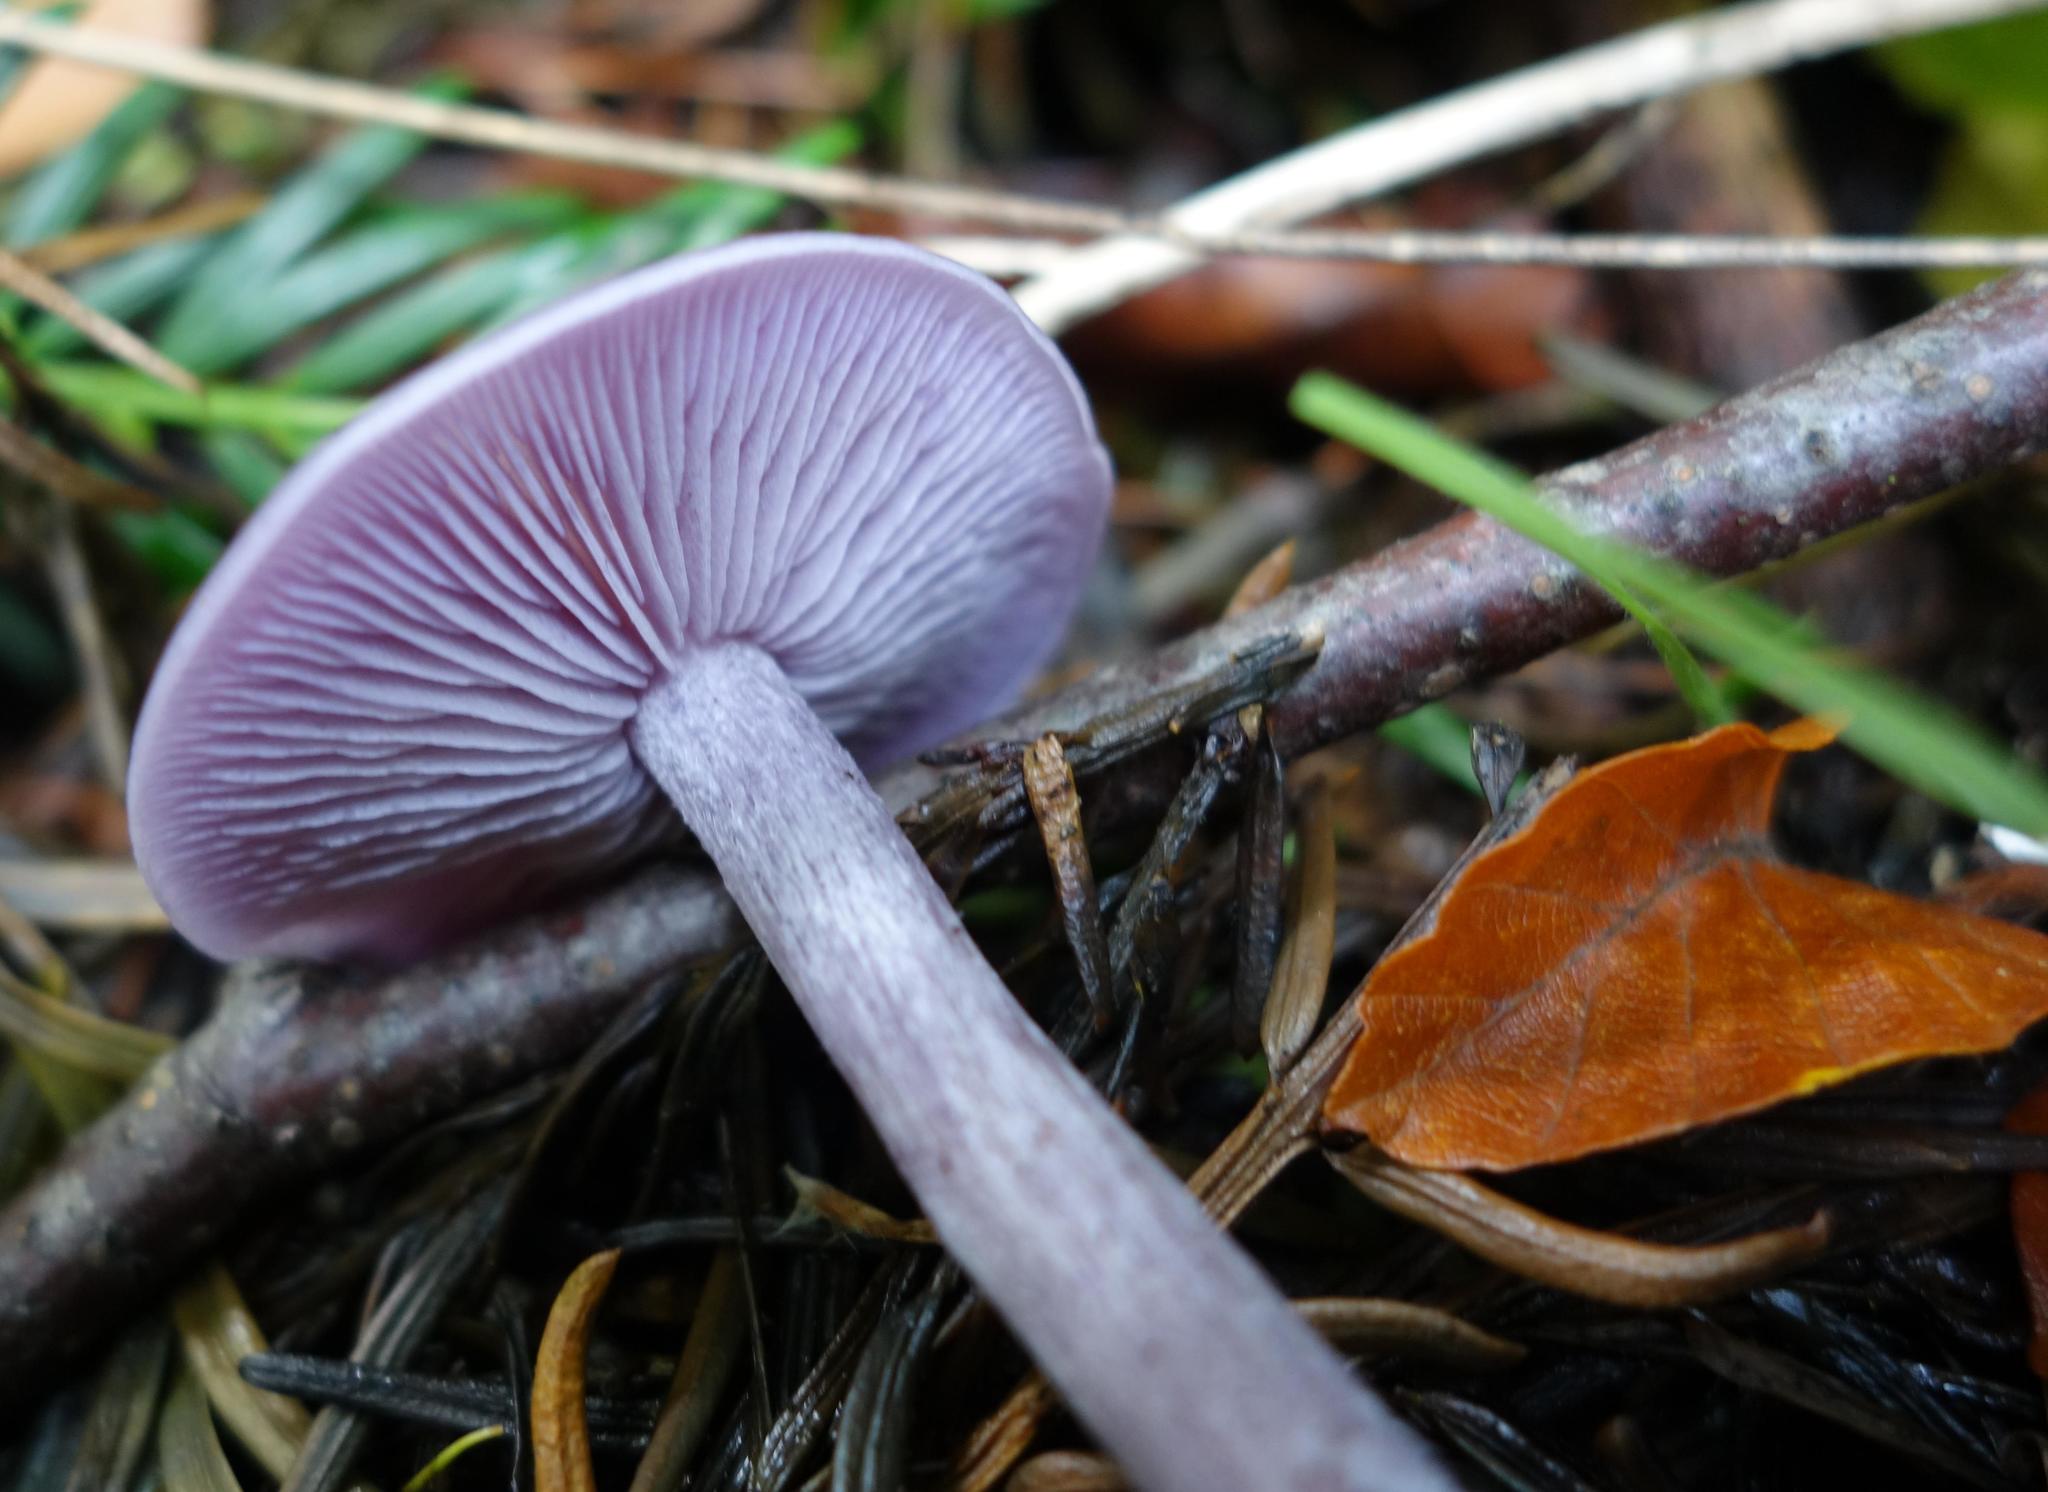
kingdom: Fungi
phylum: Basidiomycota
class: Agaricomycetes
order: Agaricales
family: Tricholomataceae
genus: Collybia
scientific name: Collybia
